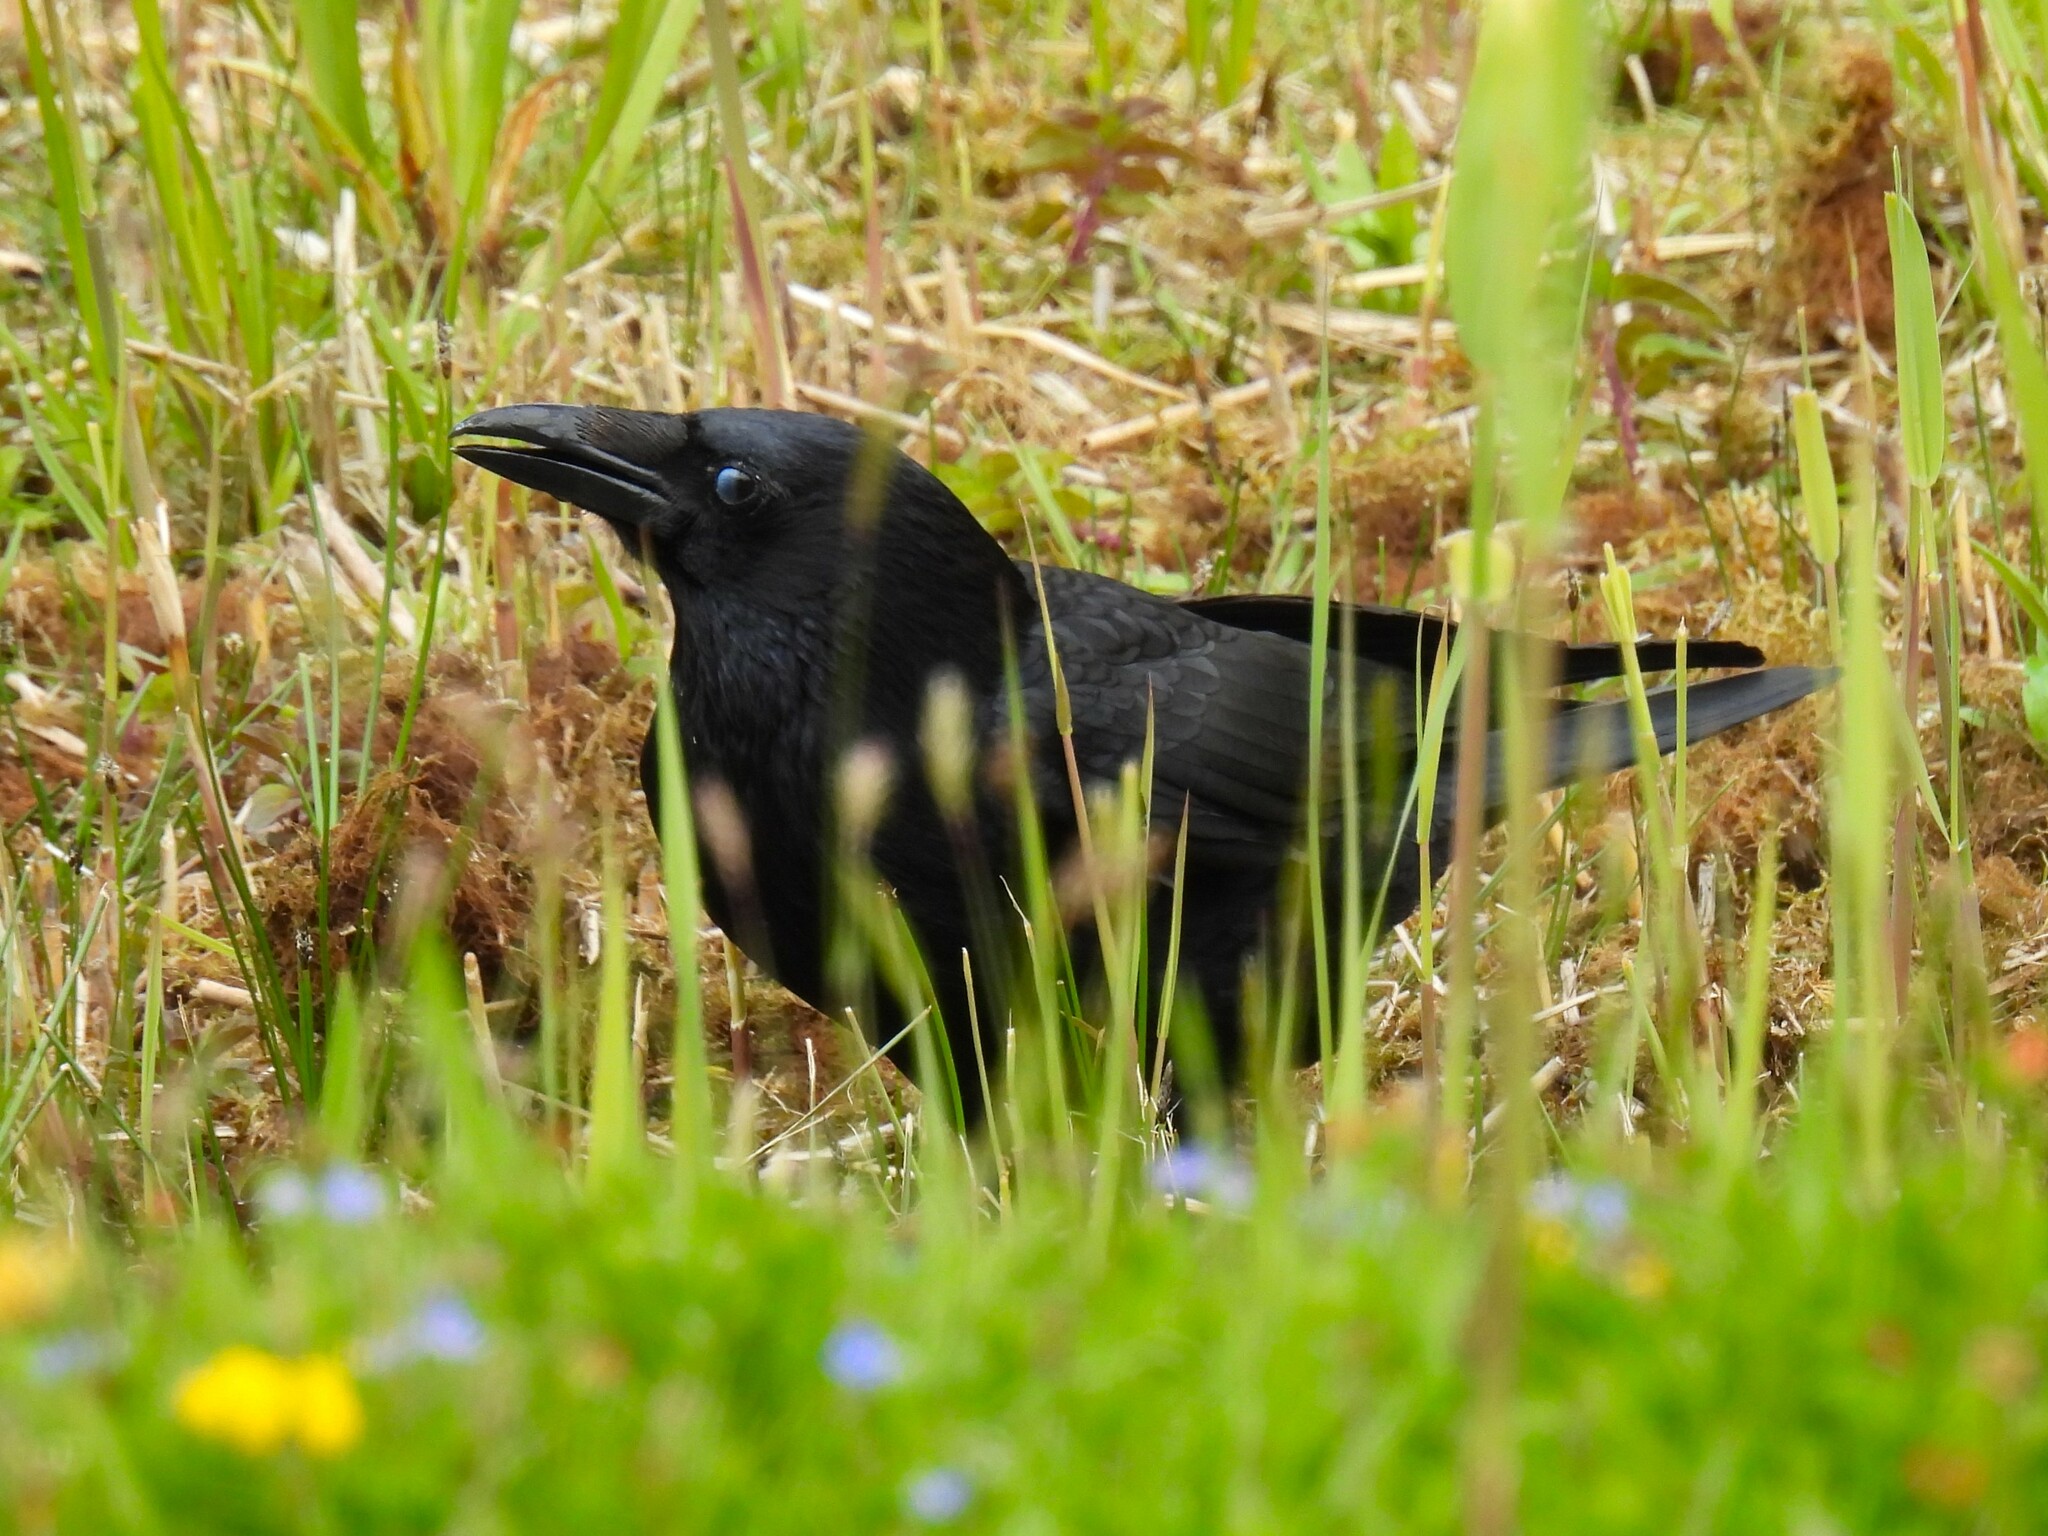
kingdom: Animalia
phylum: Chordata
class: Aves
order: Passeriformes
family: Corvidae
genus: Corvus
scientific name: Corvus corone
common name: Carrion crow
